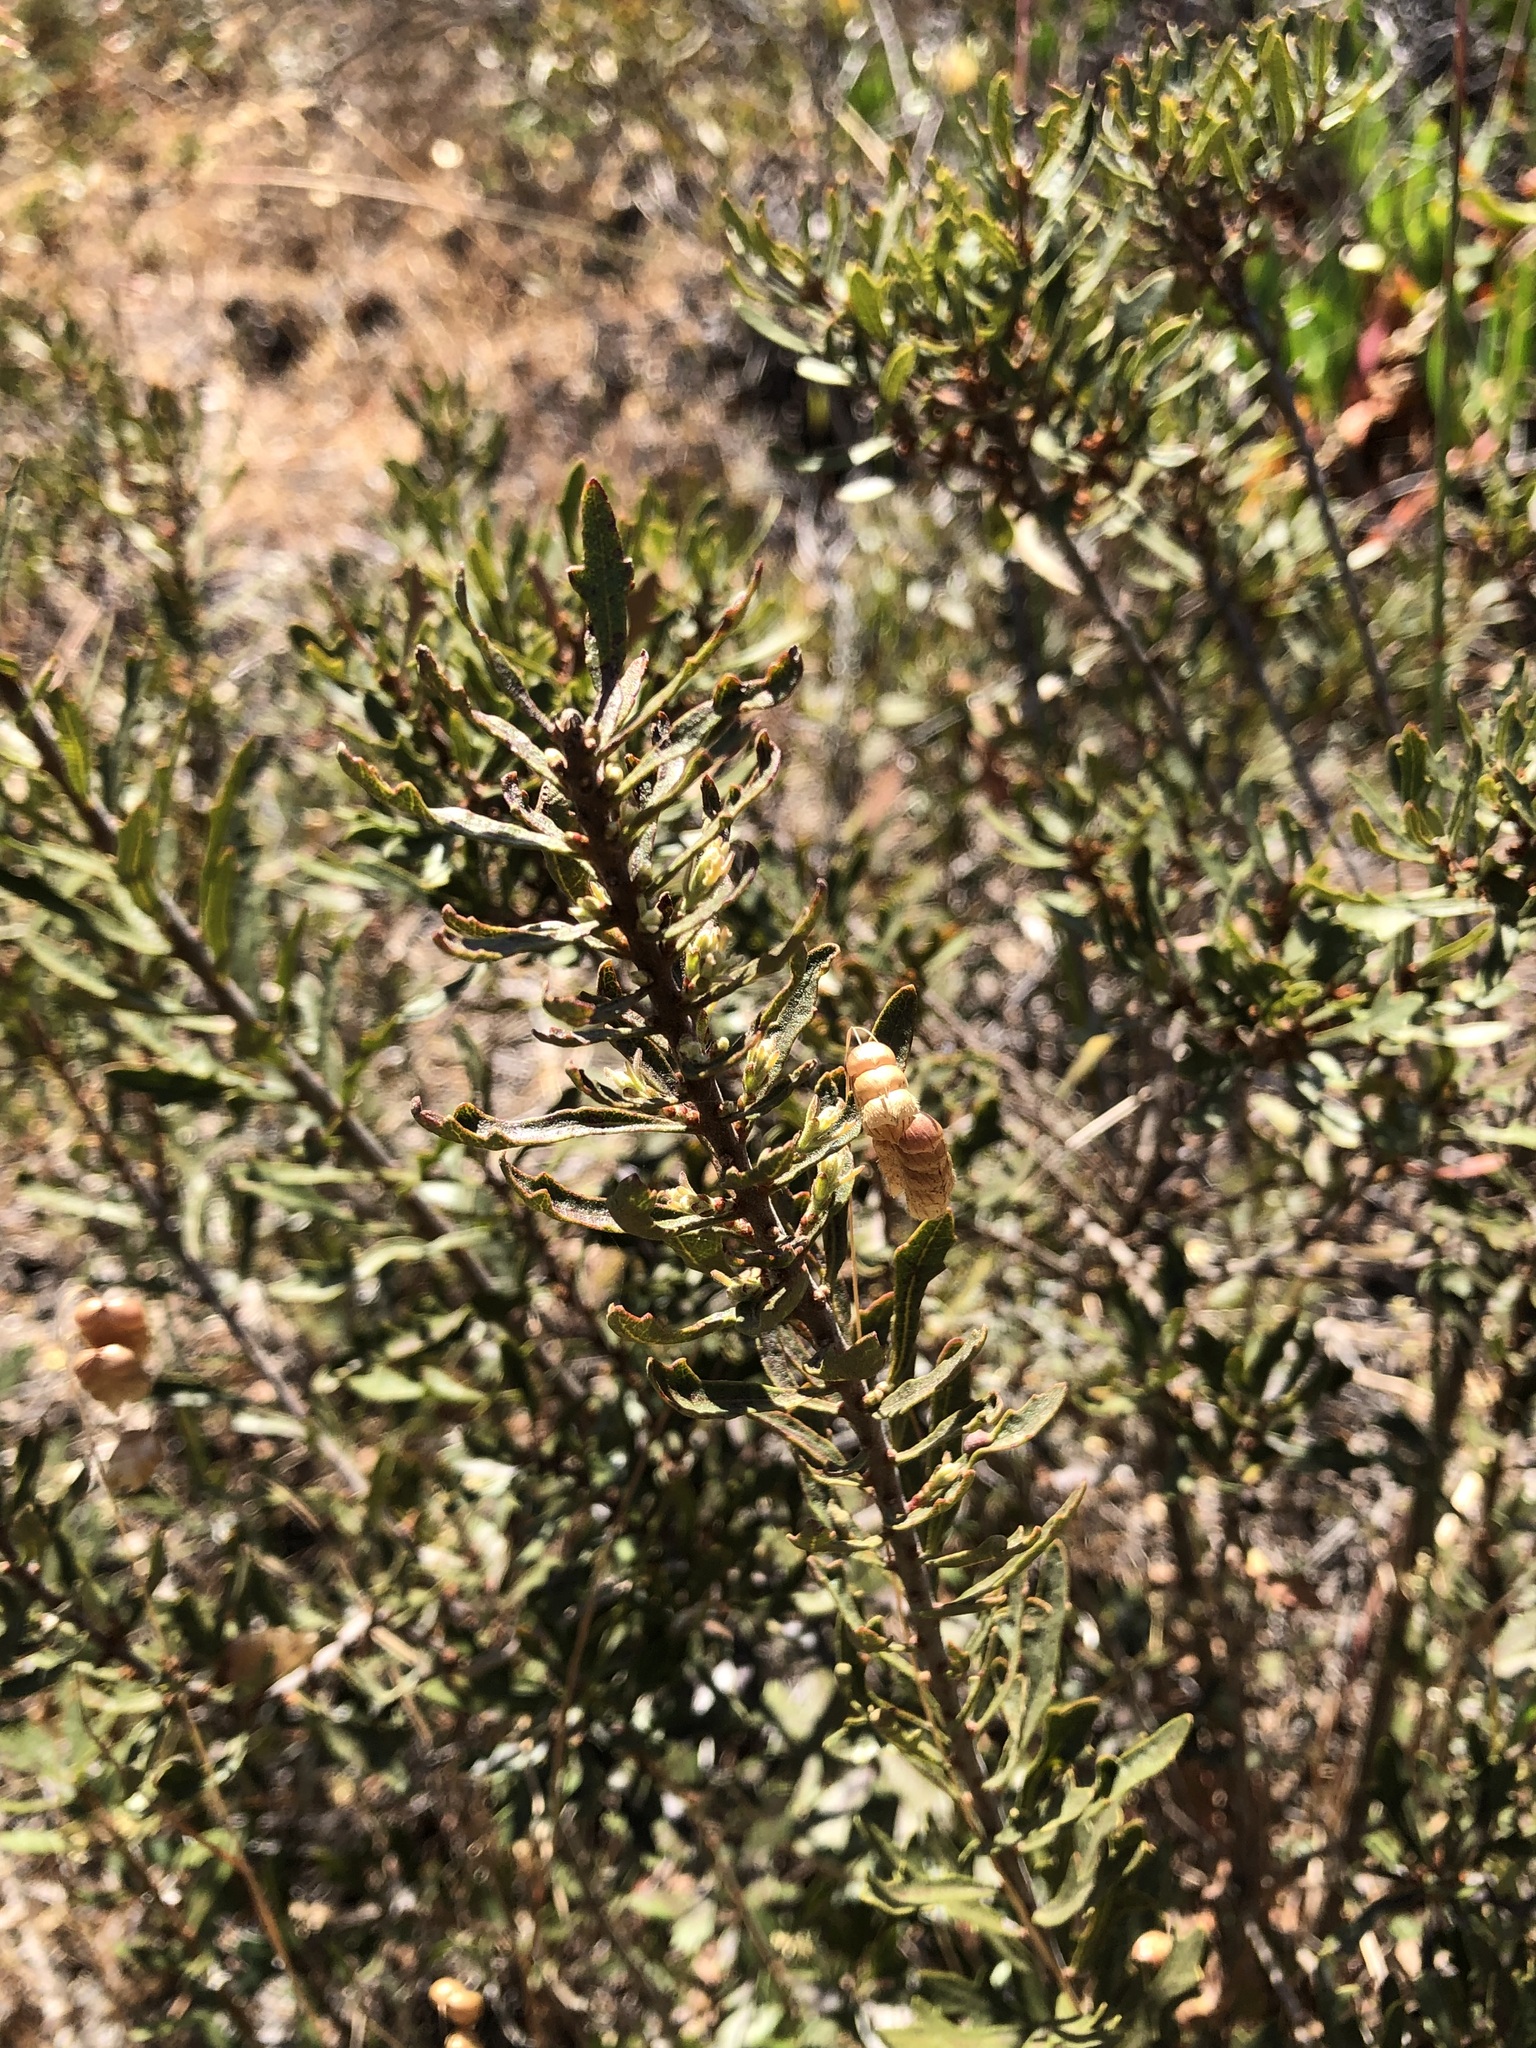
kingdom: Plantae
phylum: Tracheophyta
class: Magnoliopsida
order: Fagales
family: Myricaceae
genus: Morella
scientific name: Morella quercifolia
